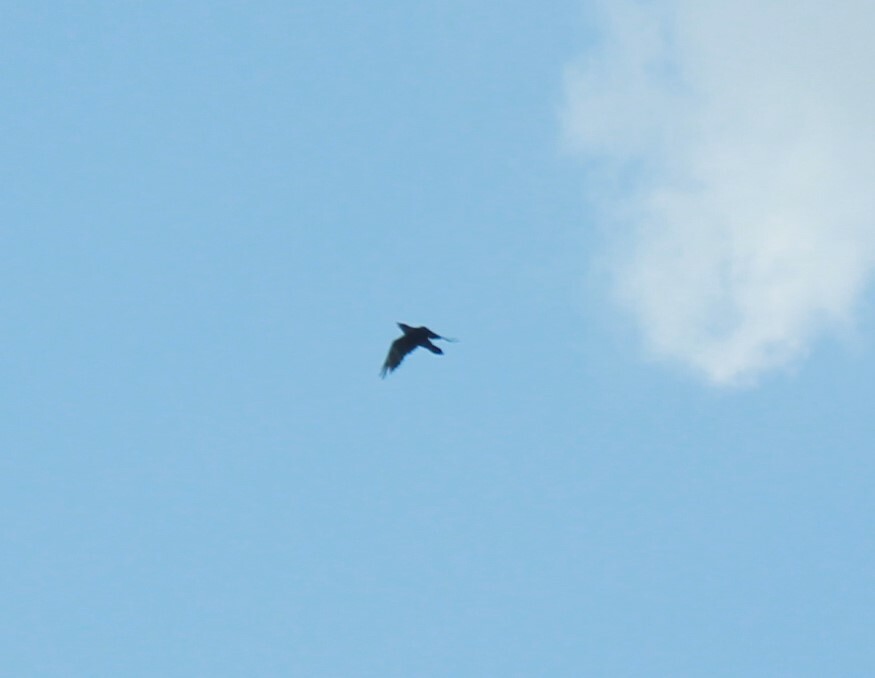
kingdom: Animalia
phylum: Chordata
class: Aves
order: Passeriformes
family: Corvidae
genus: Corvus
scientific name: Corvus corax
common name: Common raven
